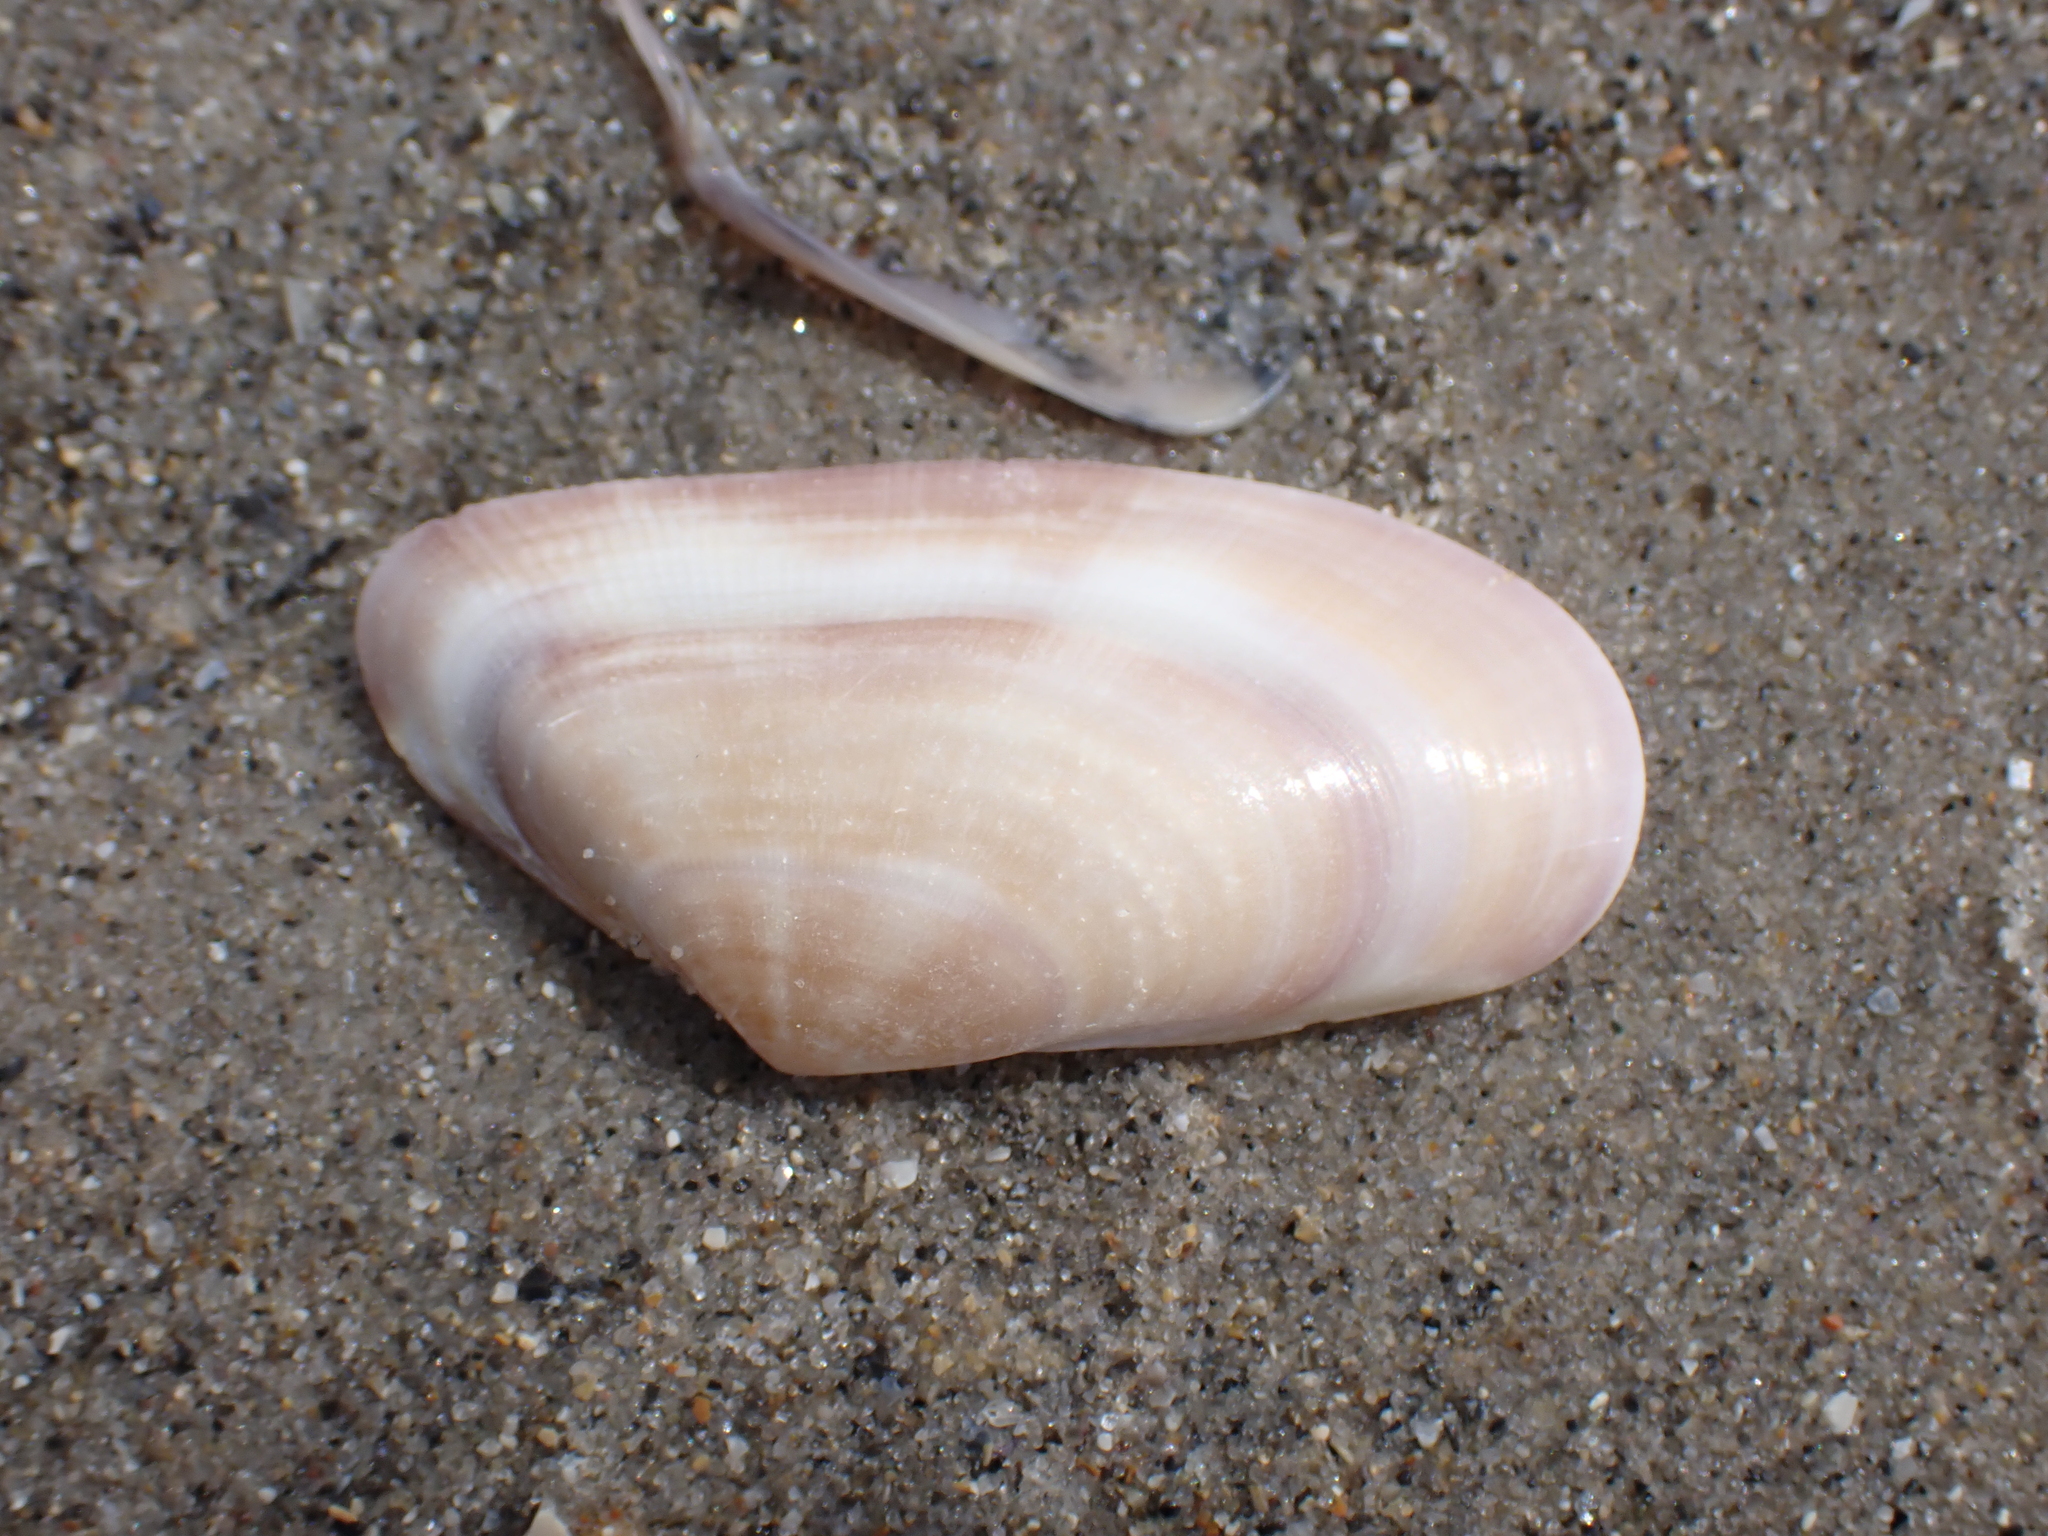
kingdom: Animalia
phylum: Mollusca
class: Bivalvia
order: Cardiida
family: Donacidae
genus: Donax
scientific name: Donax vittatus
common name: Banded wedge-shell
